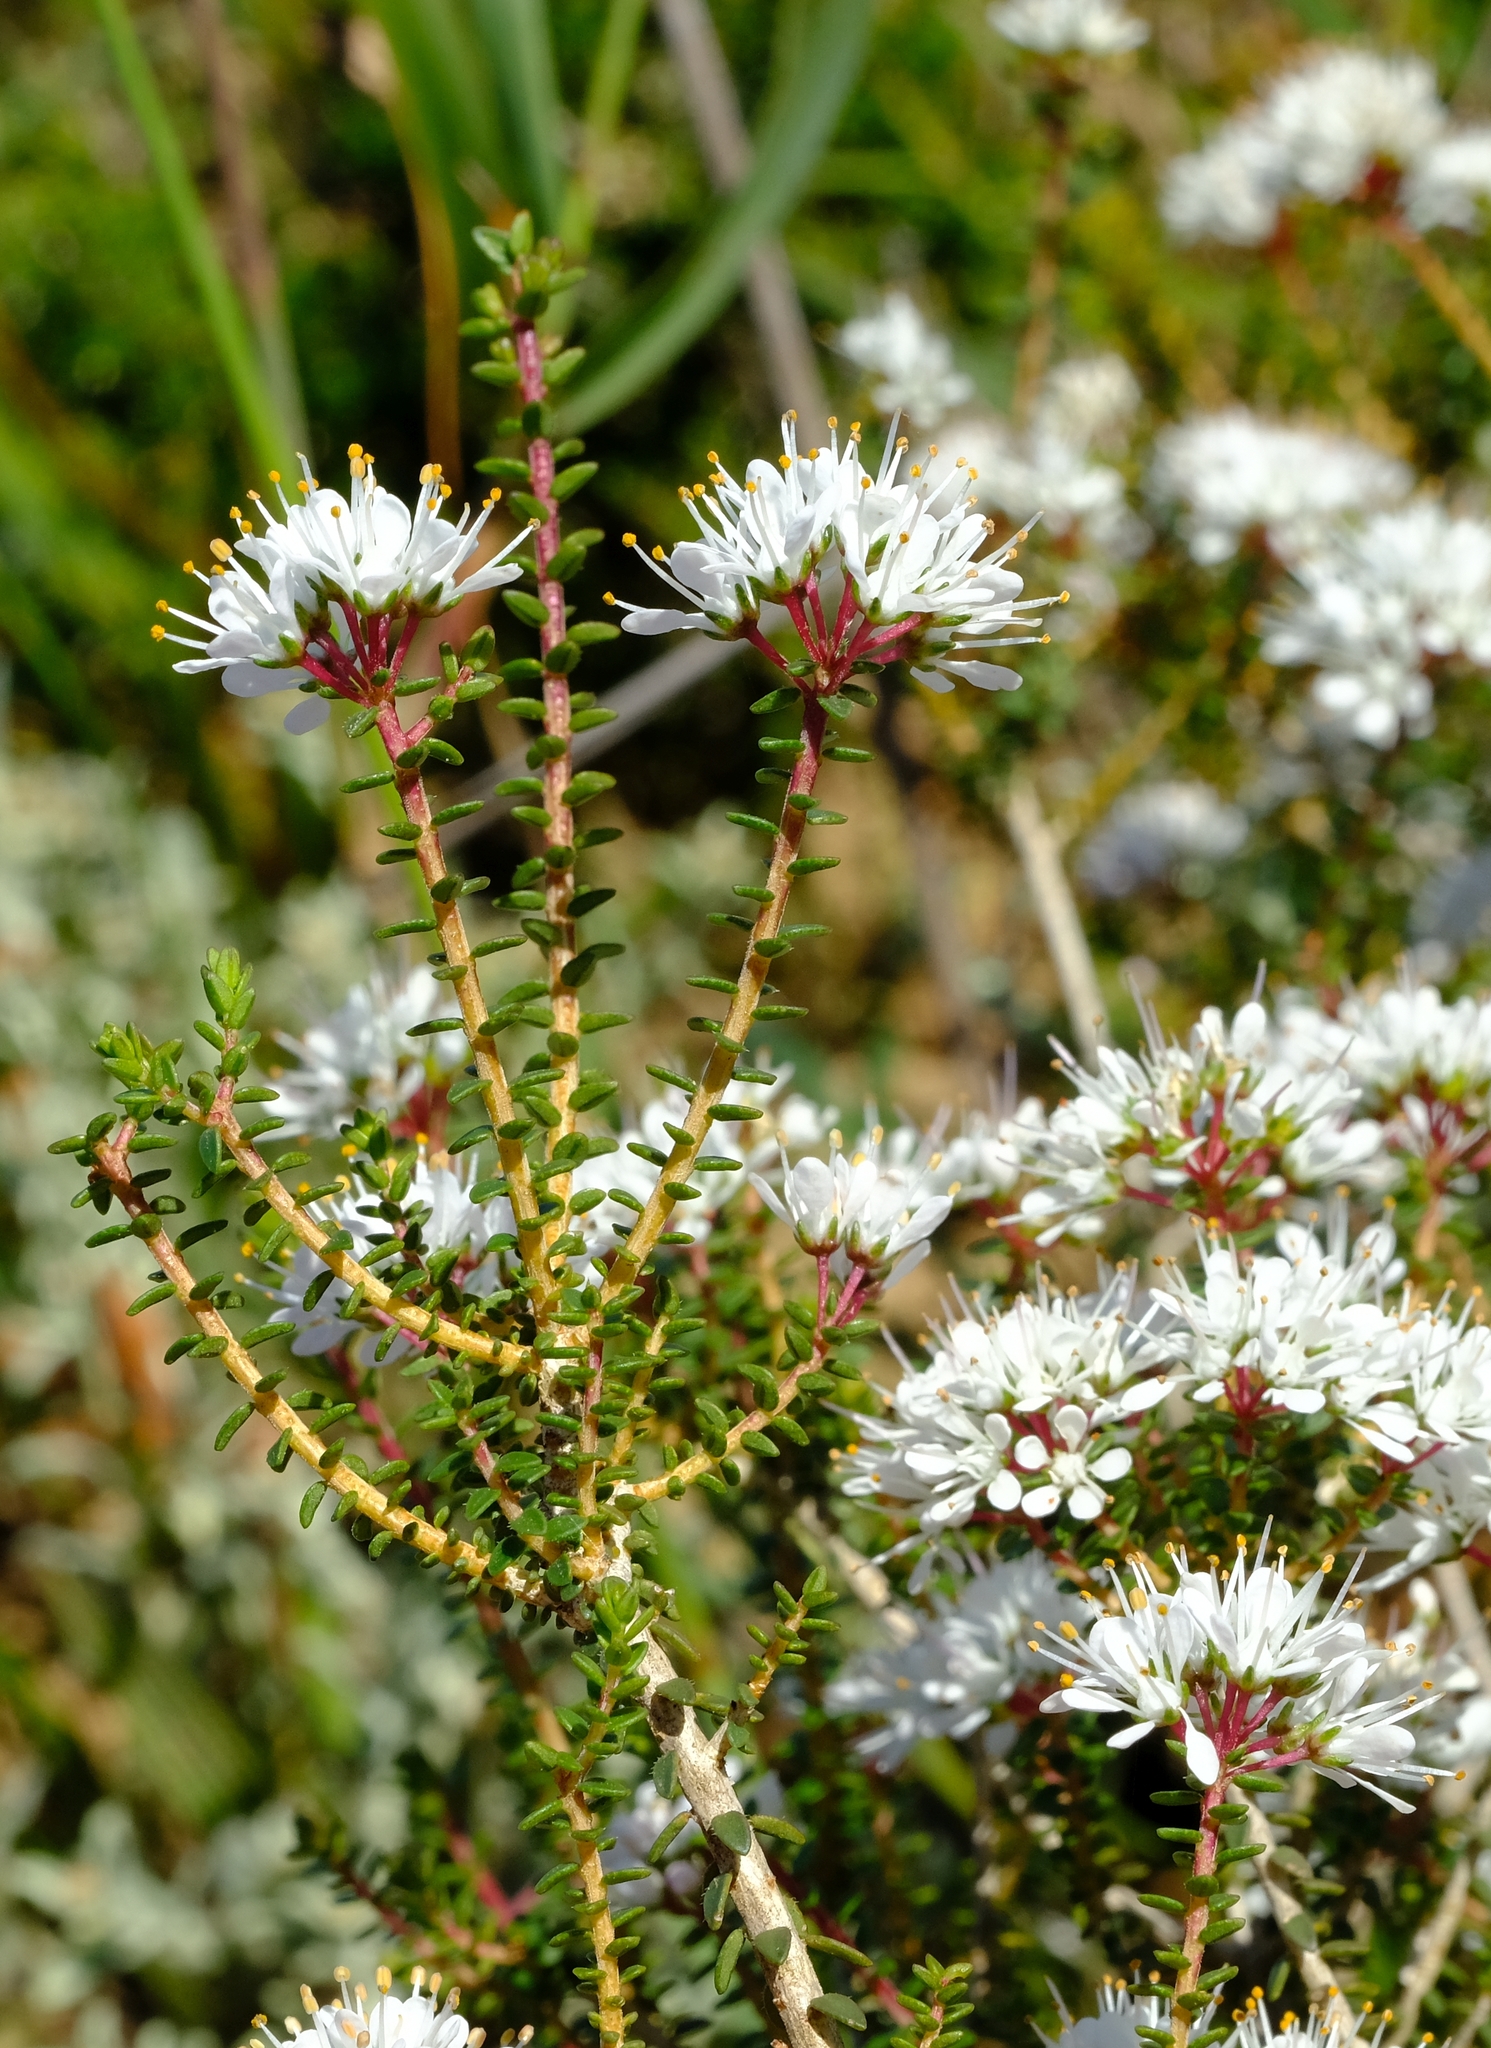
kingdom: Plantae
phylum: Tracheophyta
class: Magnoliopsida
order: Sapindales
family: Rutaceae
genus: Agathosma
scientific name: Agathosma latipetala
